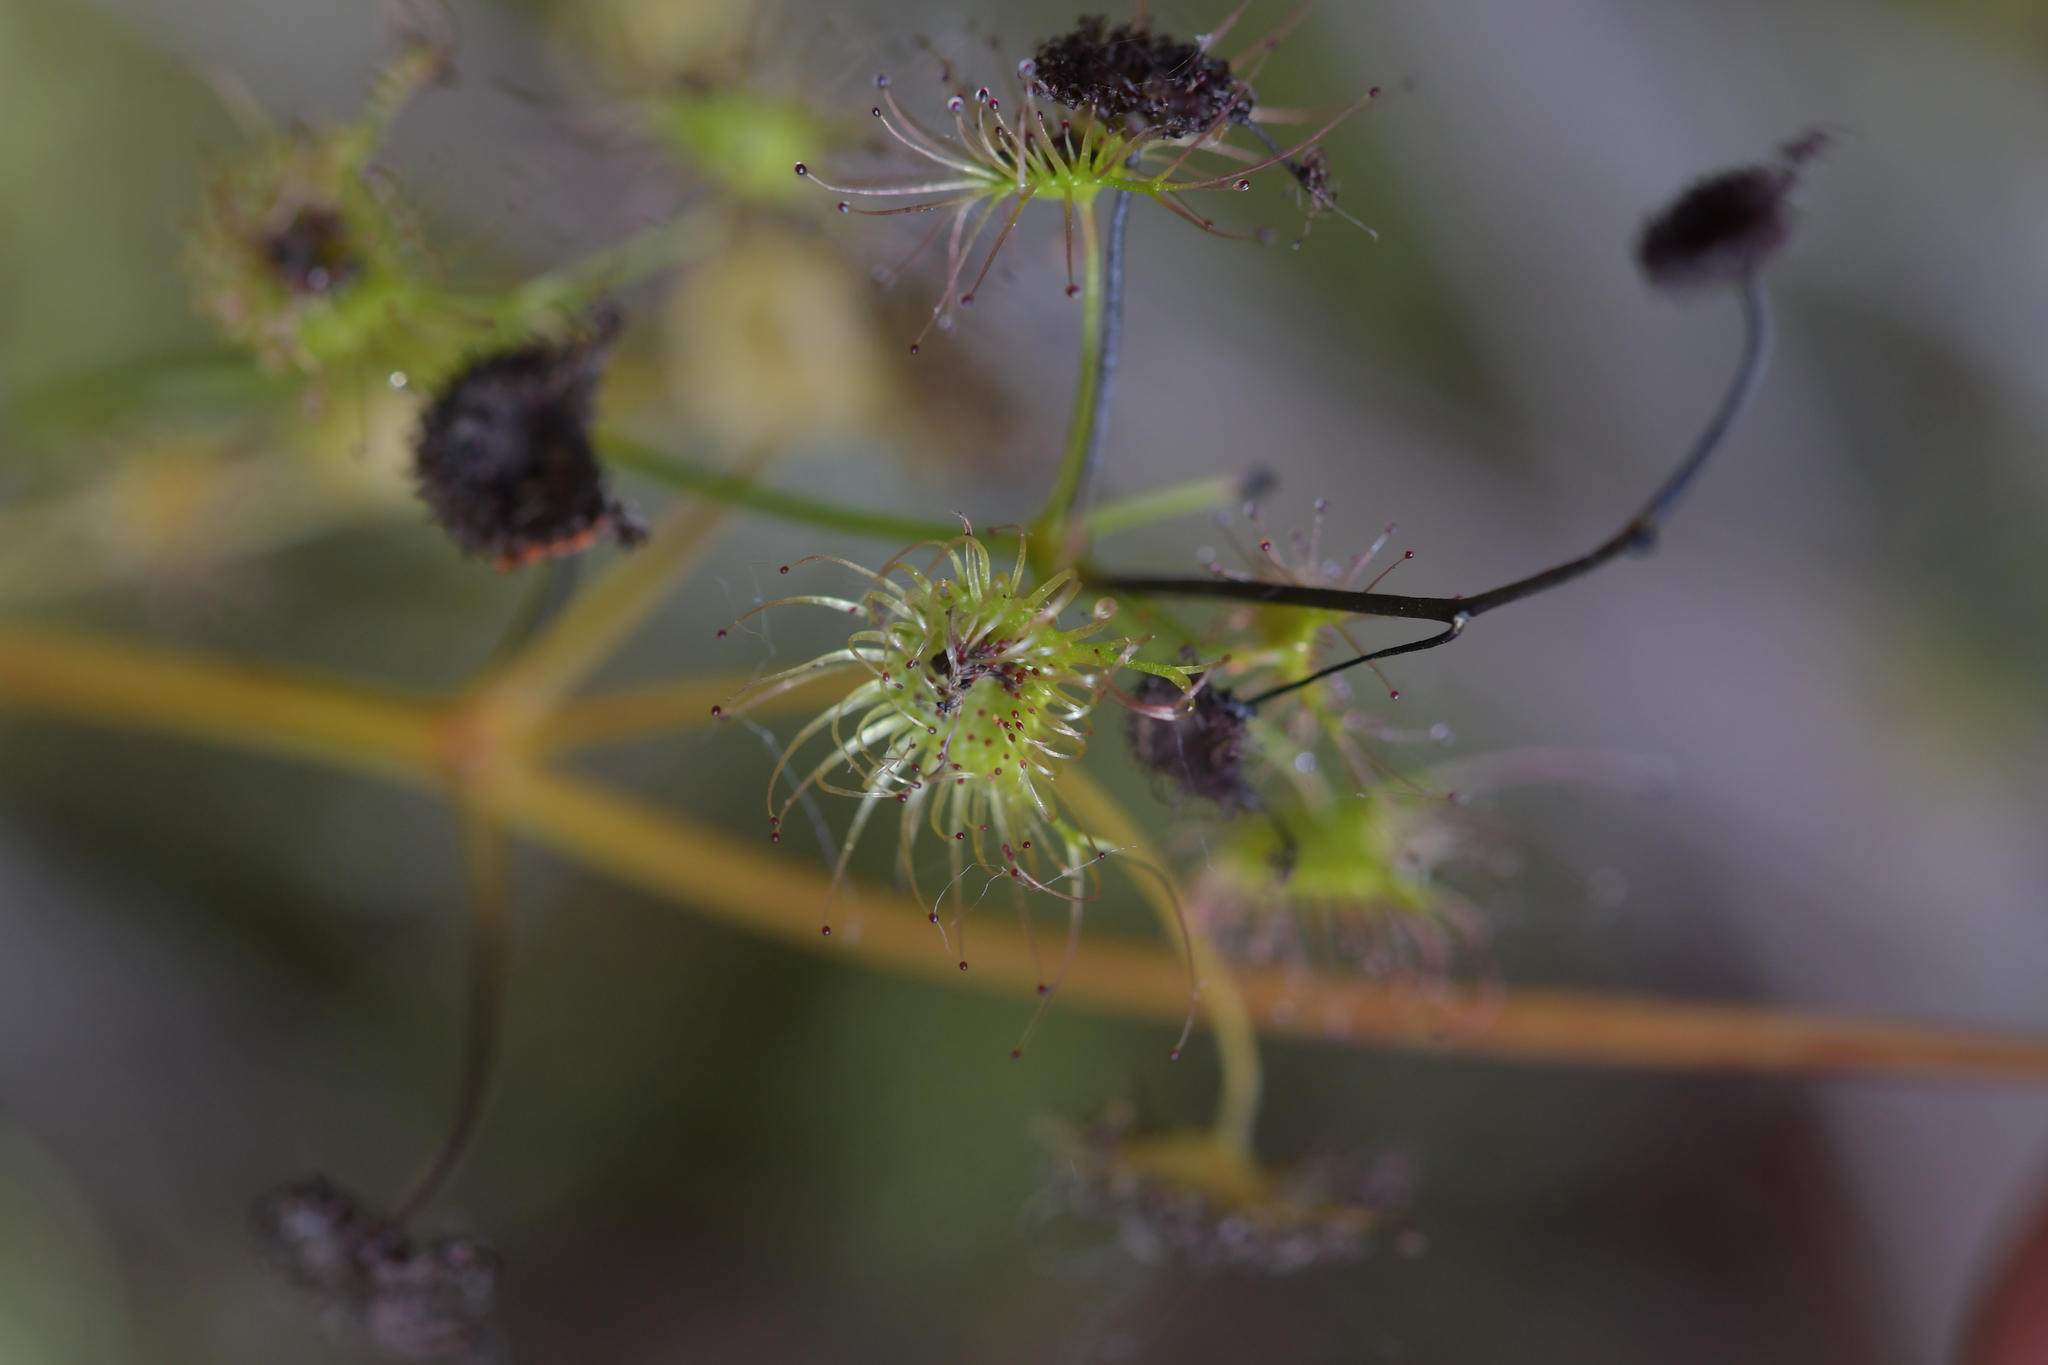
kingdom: Plantae
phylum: Tracheophyta
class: Magnoliopsida
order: Caryophyllales
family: Droseraceae
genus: Drosera
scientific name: Drosera peltata
